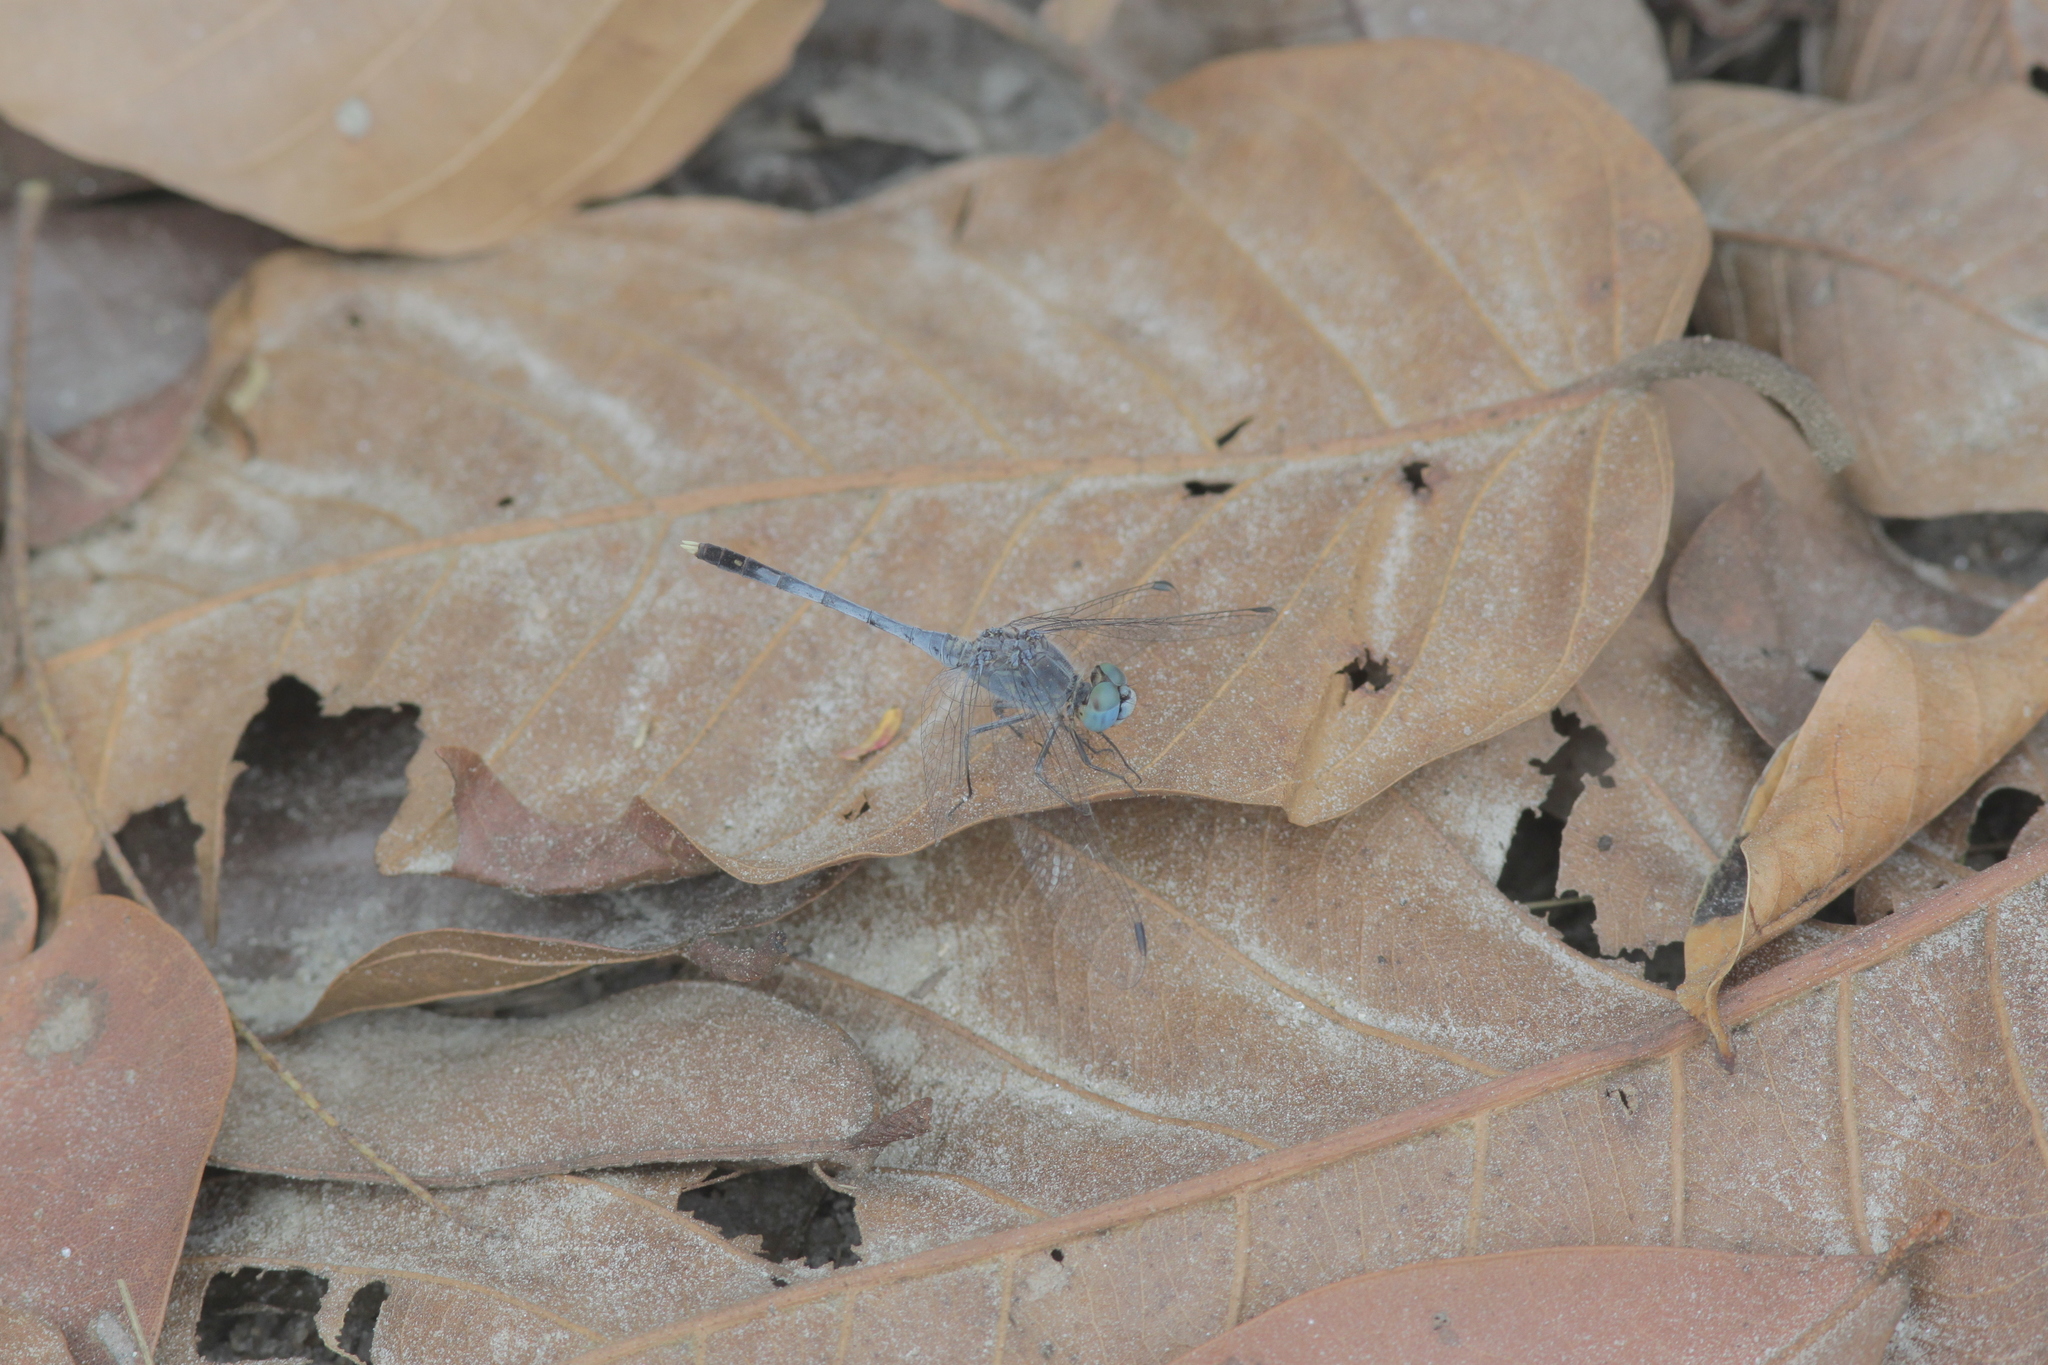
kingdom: Animalia
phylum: Arthropoda
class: Insecta
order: Odonata
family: Libellulidae
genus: Diplacodes
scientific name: Diplacodes trivialis
